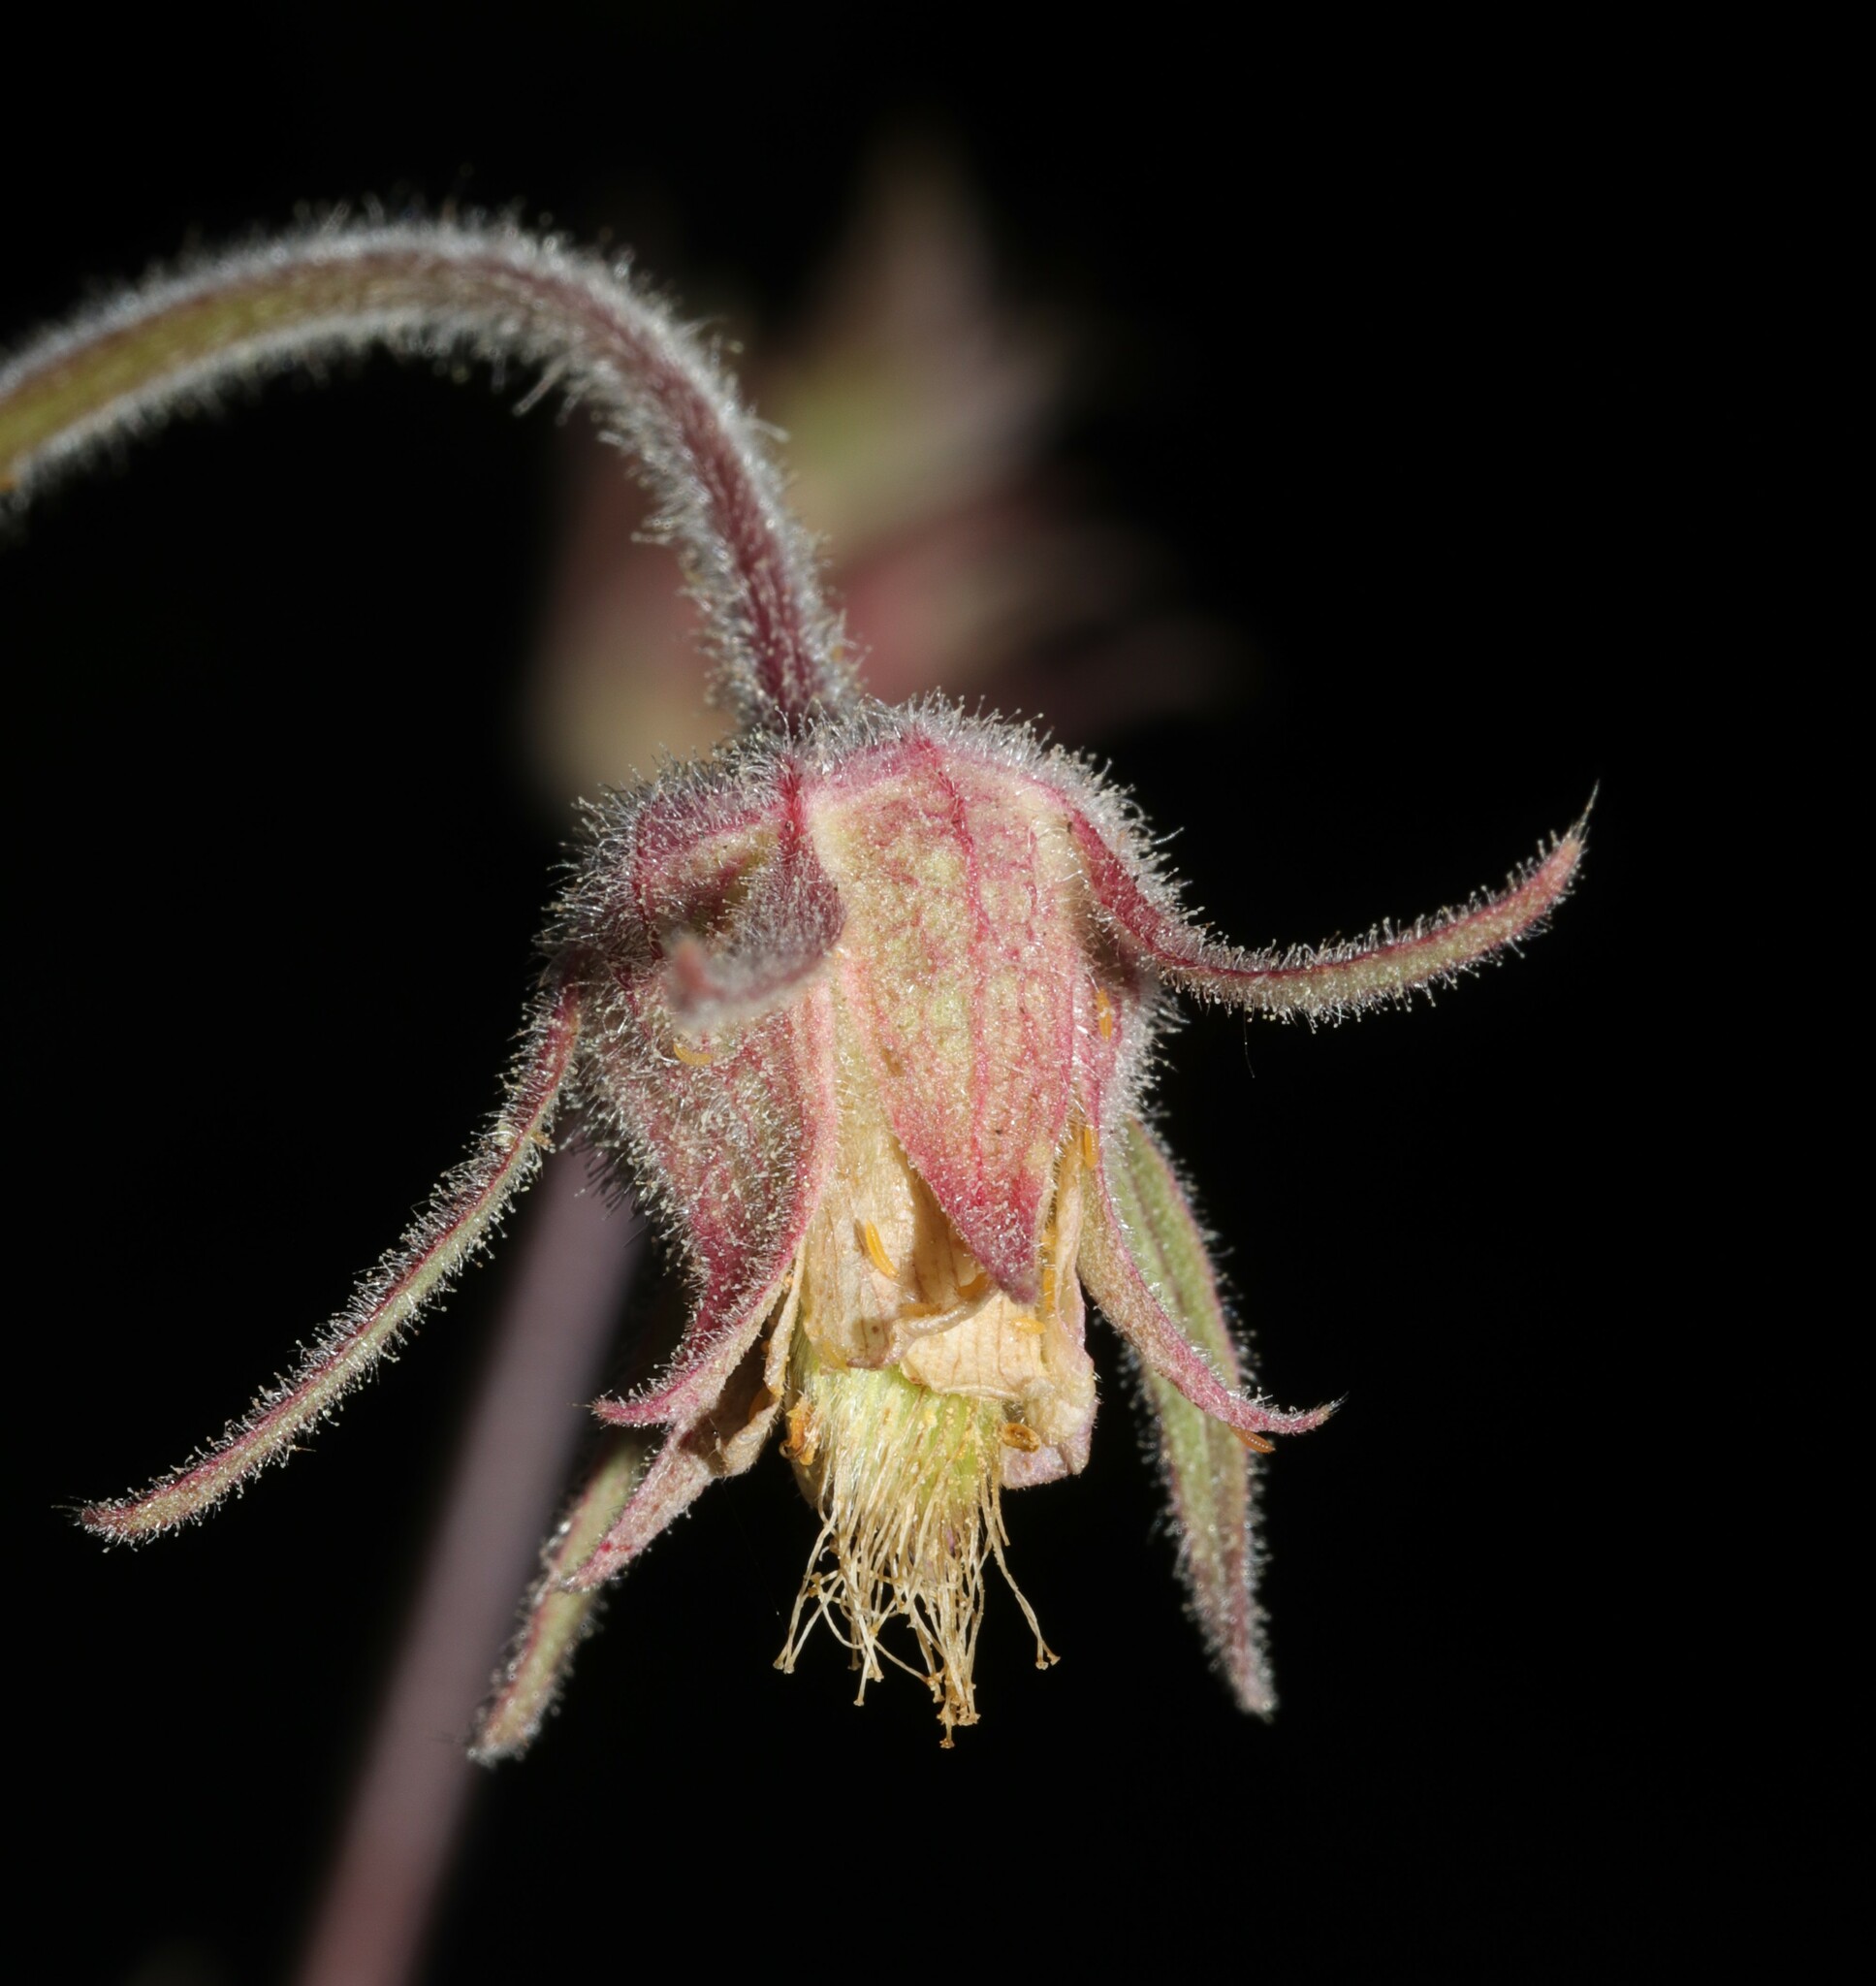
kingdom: Plantae
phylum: Tracheophyta
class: Magnoliopsida
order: Rosales
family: Rosaceae
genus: Geum
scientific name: Geum triflorum
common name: Old man's whiskers
